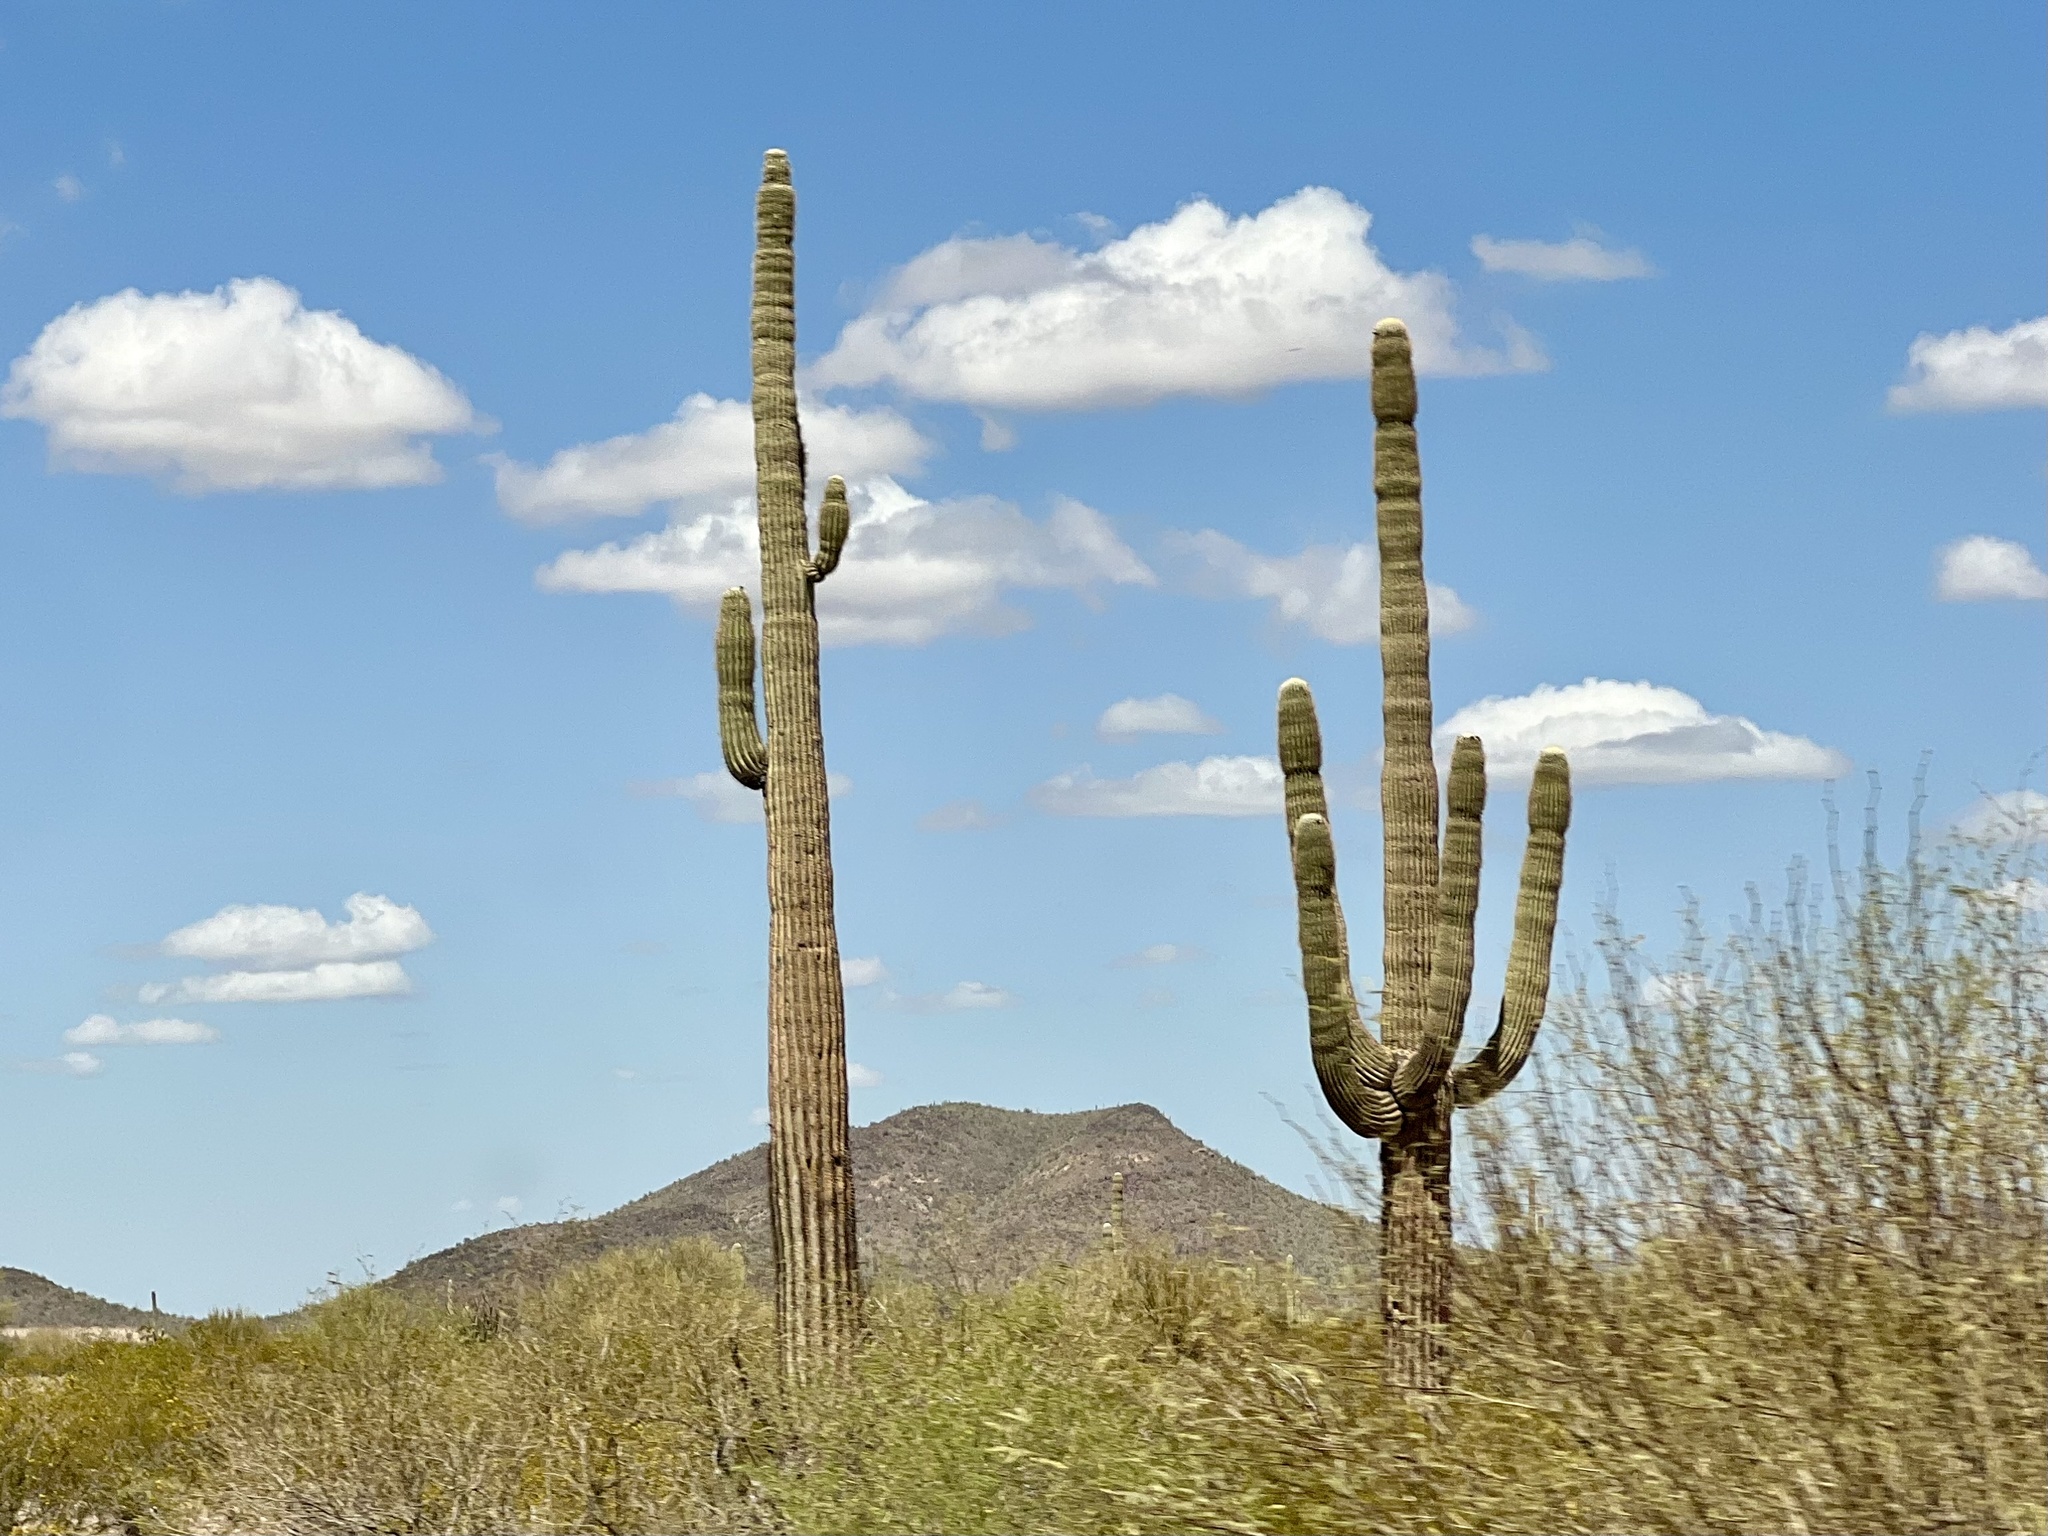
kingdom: Plantae
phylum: Tracheophyta
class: Magnoliopsida
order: Caryophyllales
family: Cactaceae
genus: Carnegiea
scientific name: Carnegiea gigantea
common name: Saguaro
